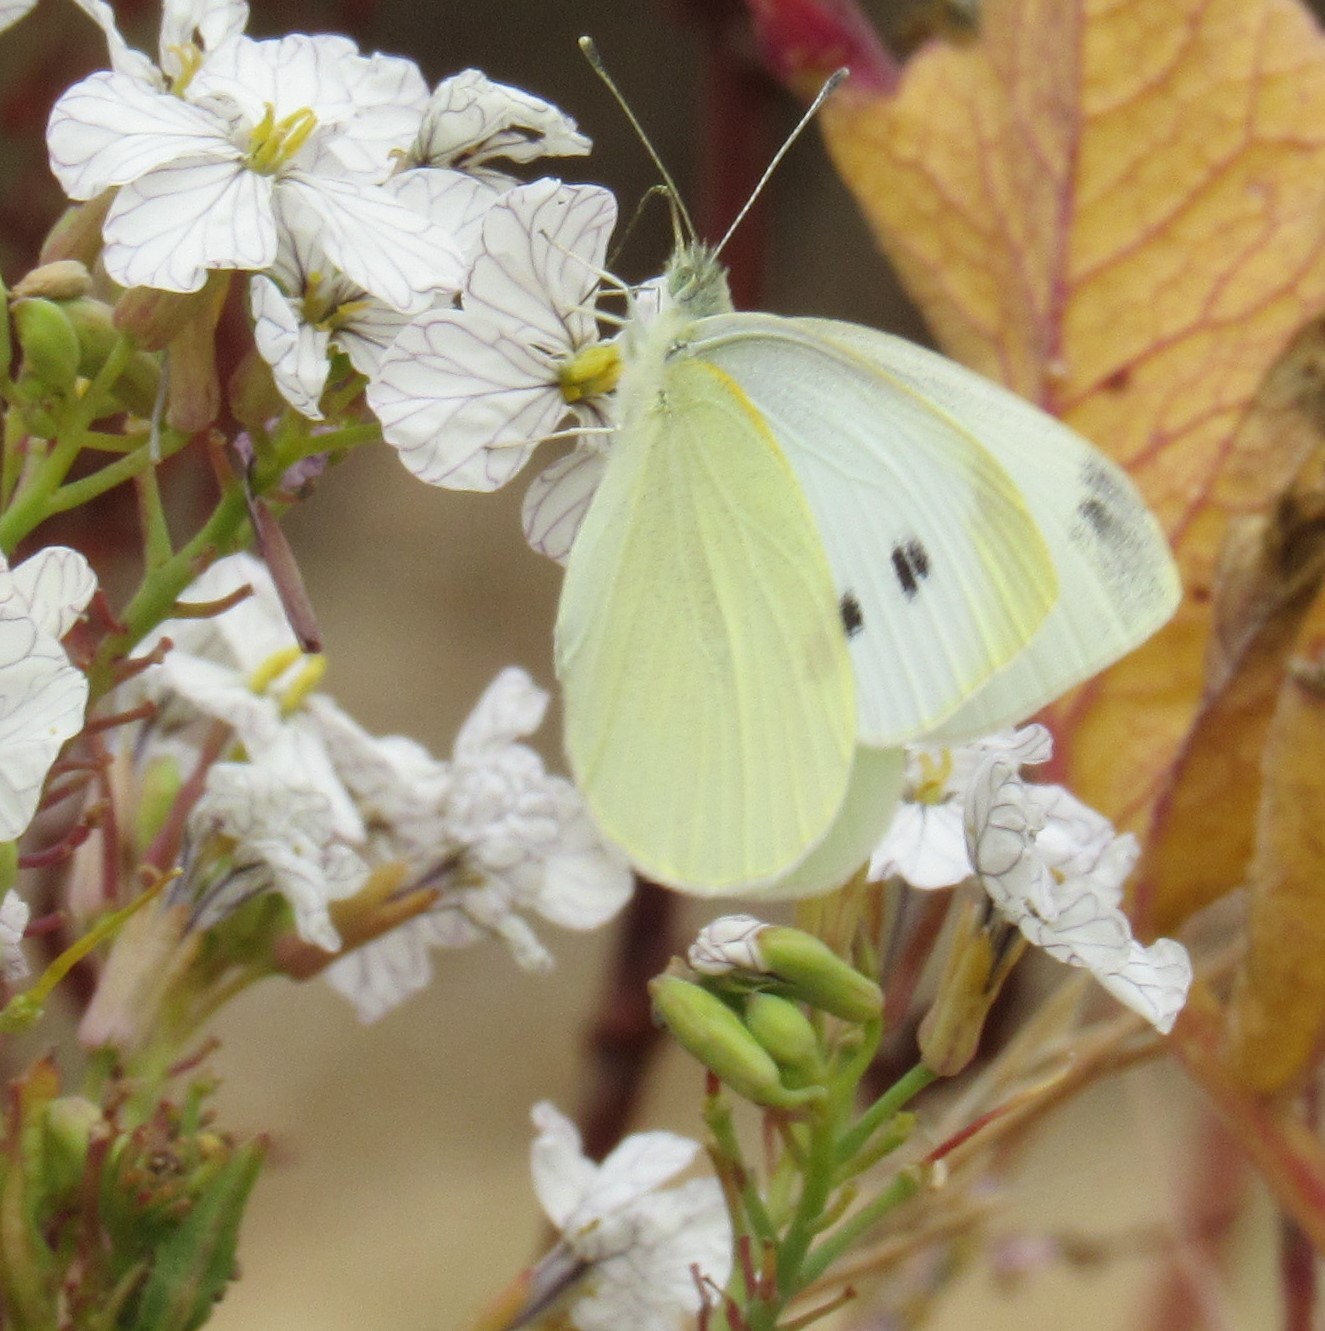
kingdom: Animalia
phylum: Arthropoda
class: Insecta
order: Lepidoptera
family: Pieridae
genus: Pieris
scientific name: Pieris rapae
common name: Small white
